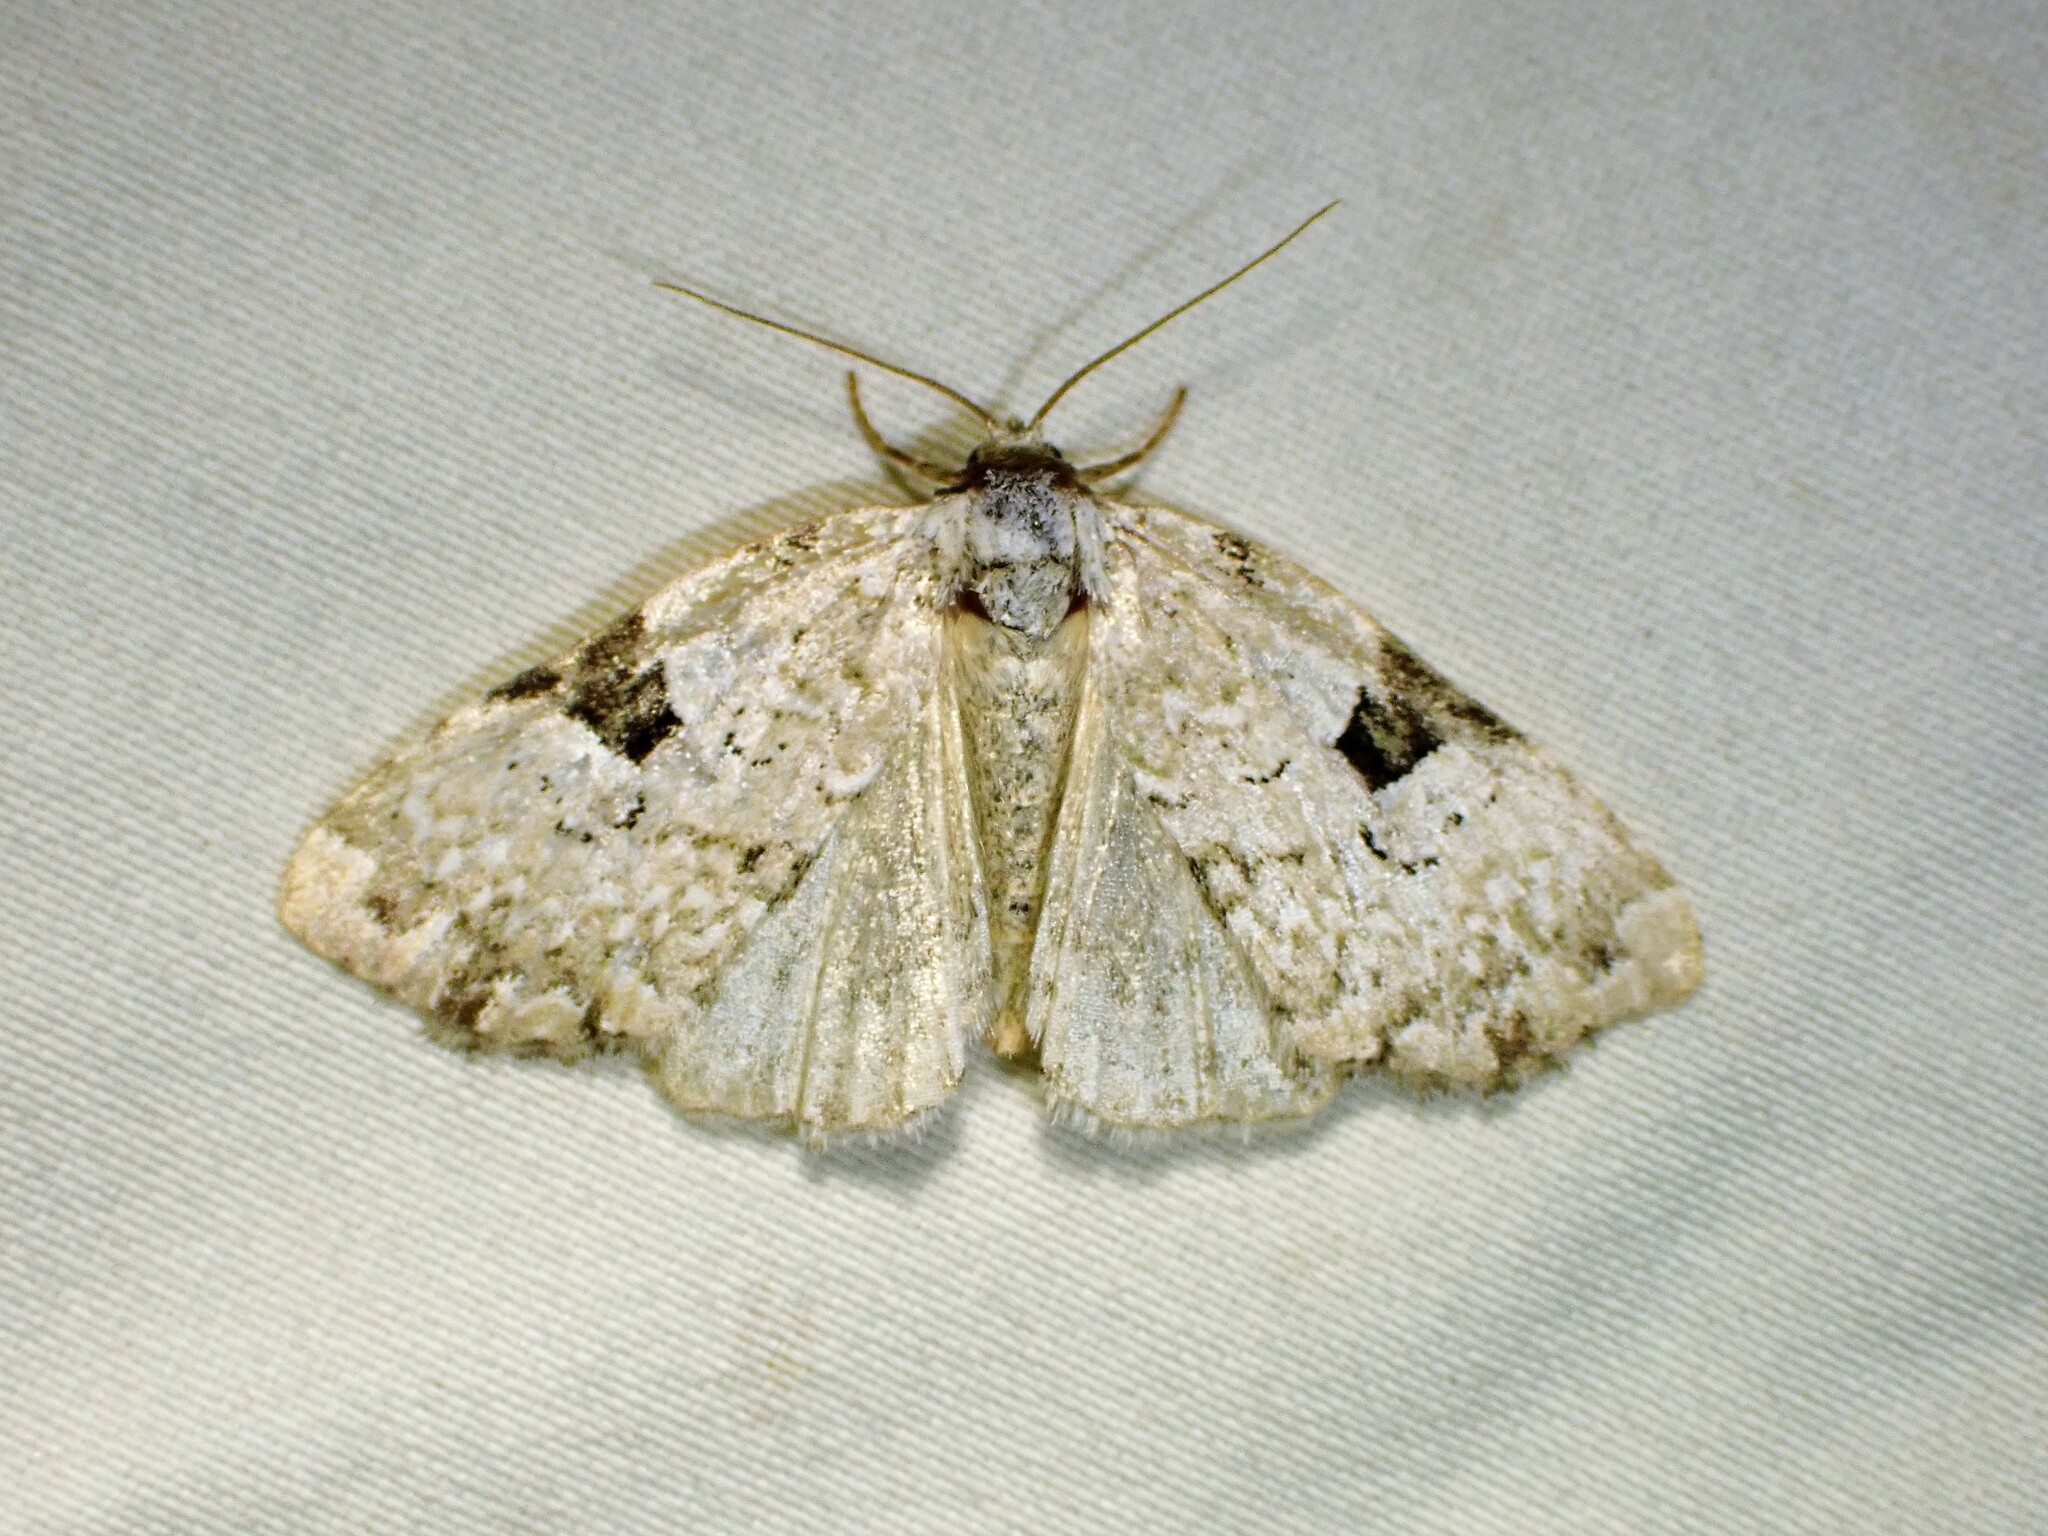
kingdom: Animalia
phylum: Arthropoda
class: Insecta
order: Lepidoptera
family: Noctuidae
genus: Leuconycta
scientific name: Leuconycta diphteroides
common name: Green leuconycta moth
